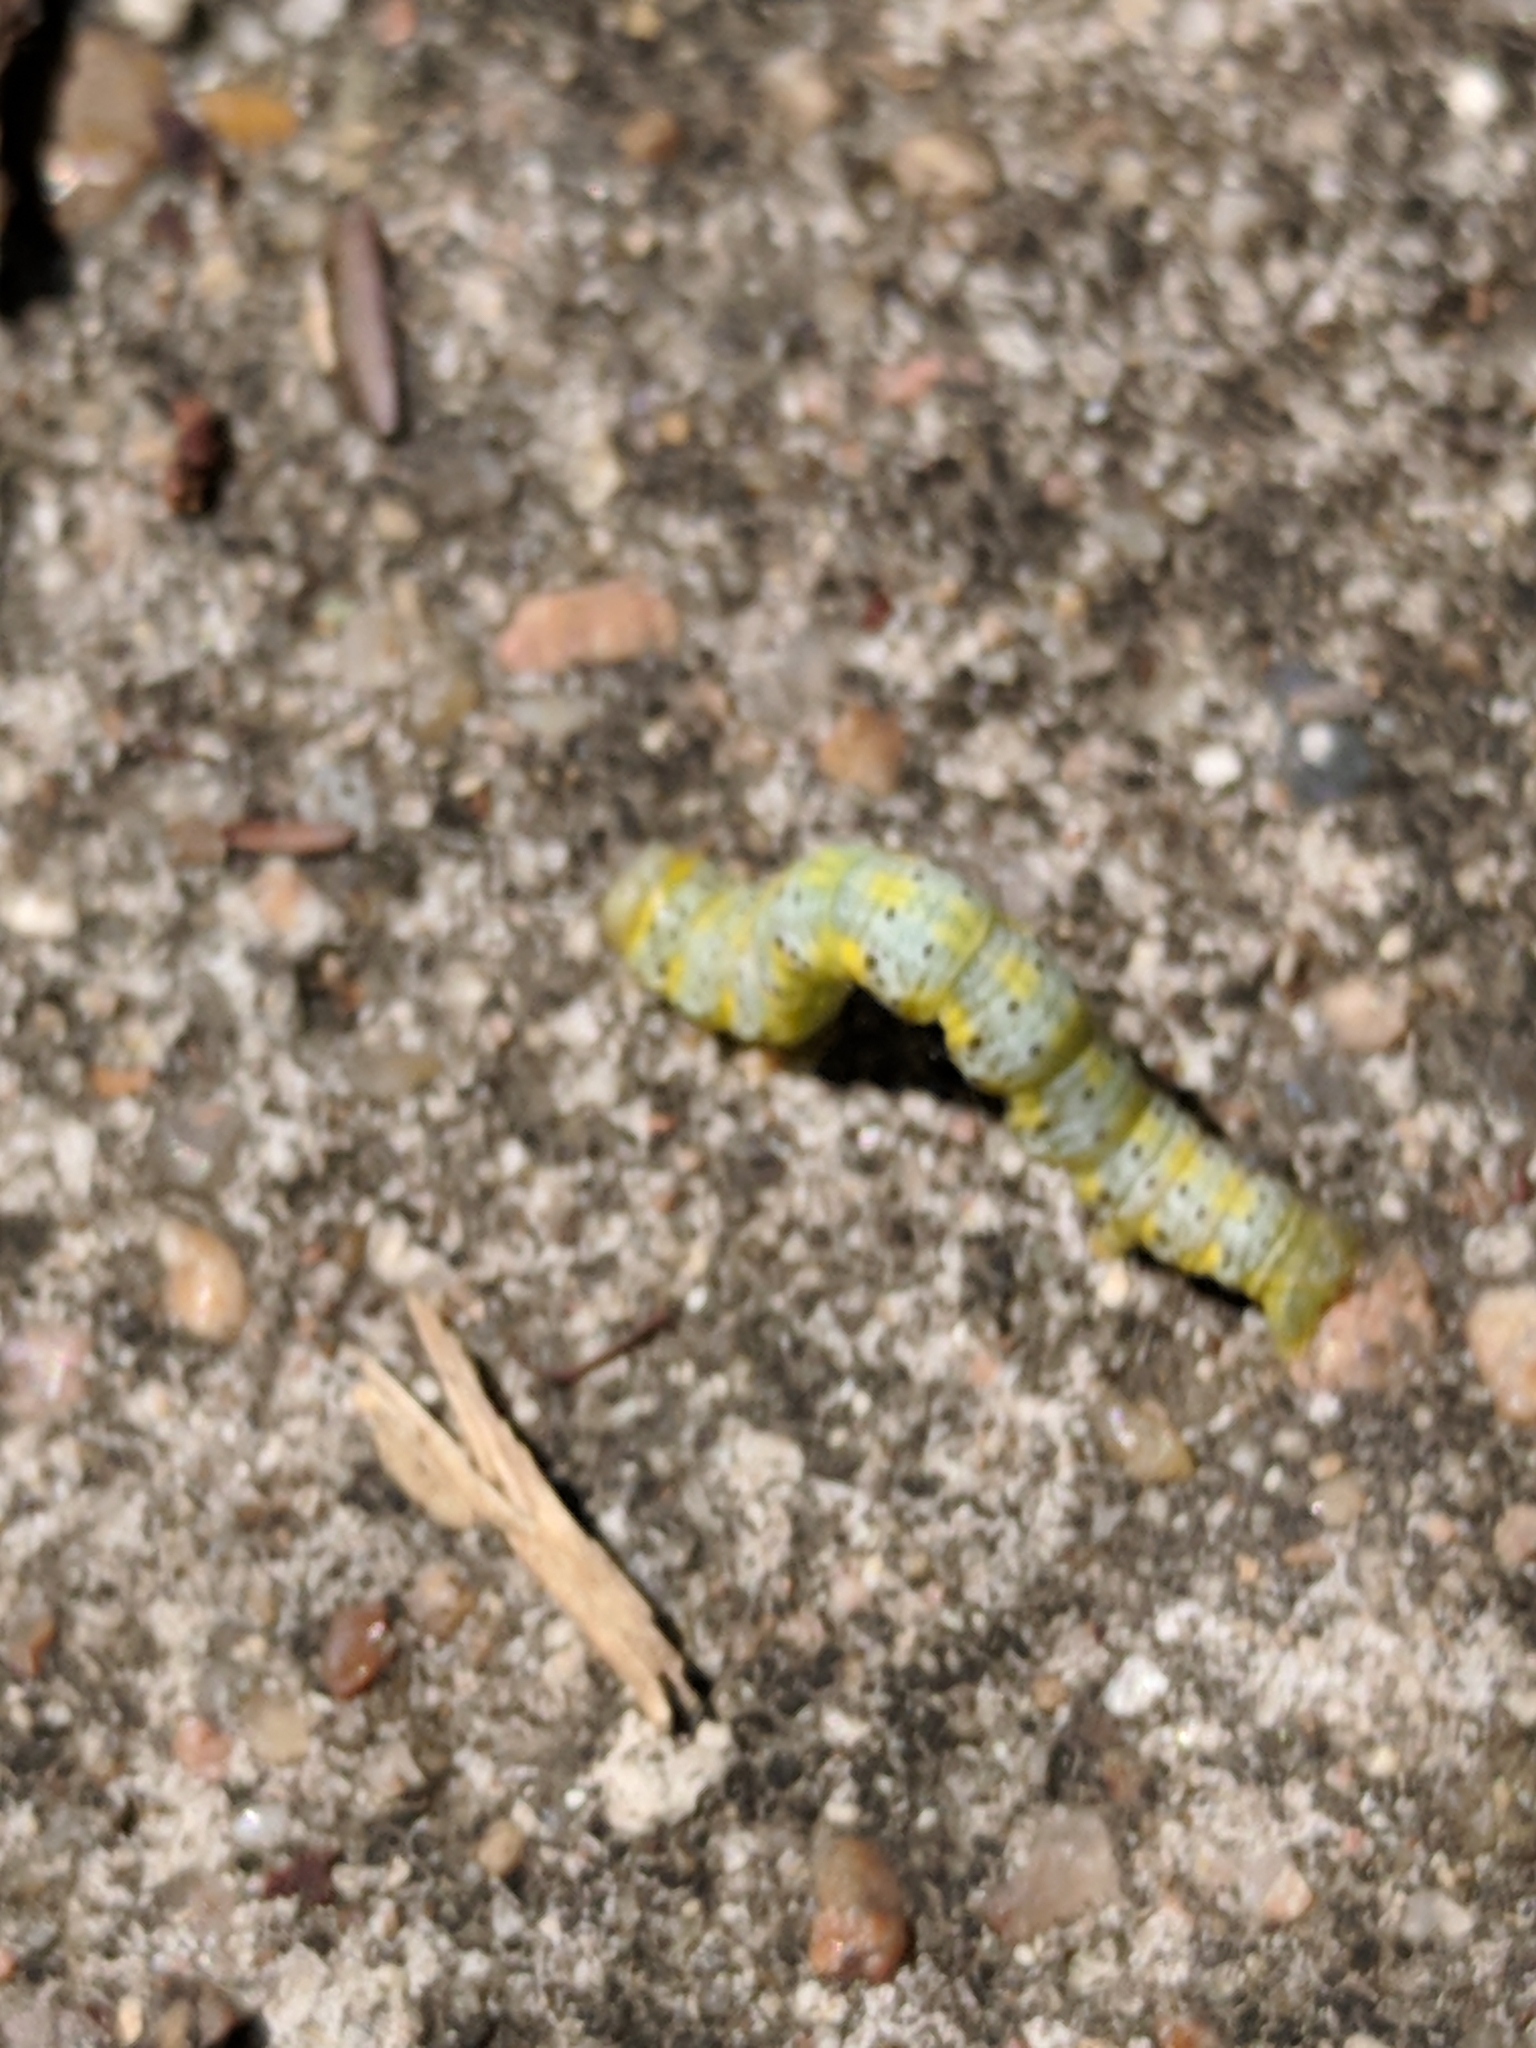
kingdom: Animalia
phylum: Arthropoda
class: Insecta
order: Lepidoptera
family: Geometridae
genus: Isturgia
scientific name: Isturgia dislocaria
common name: Pale-viened enconista
